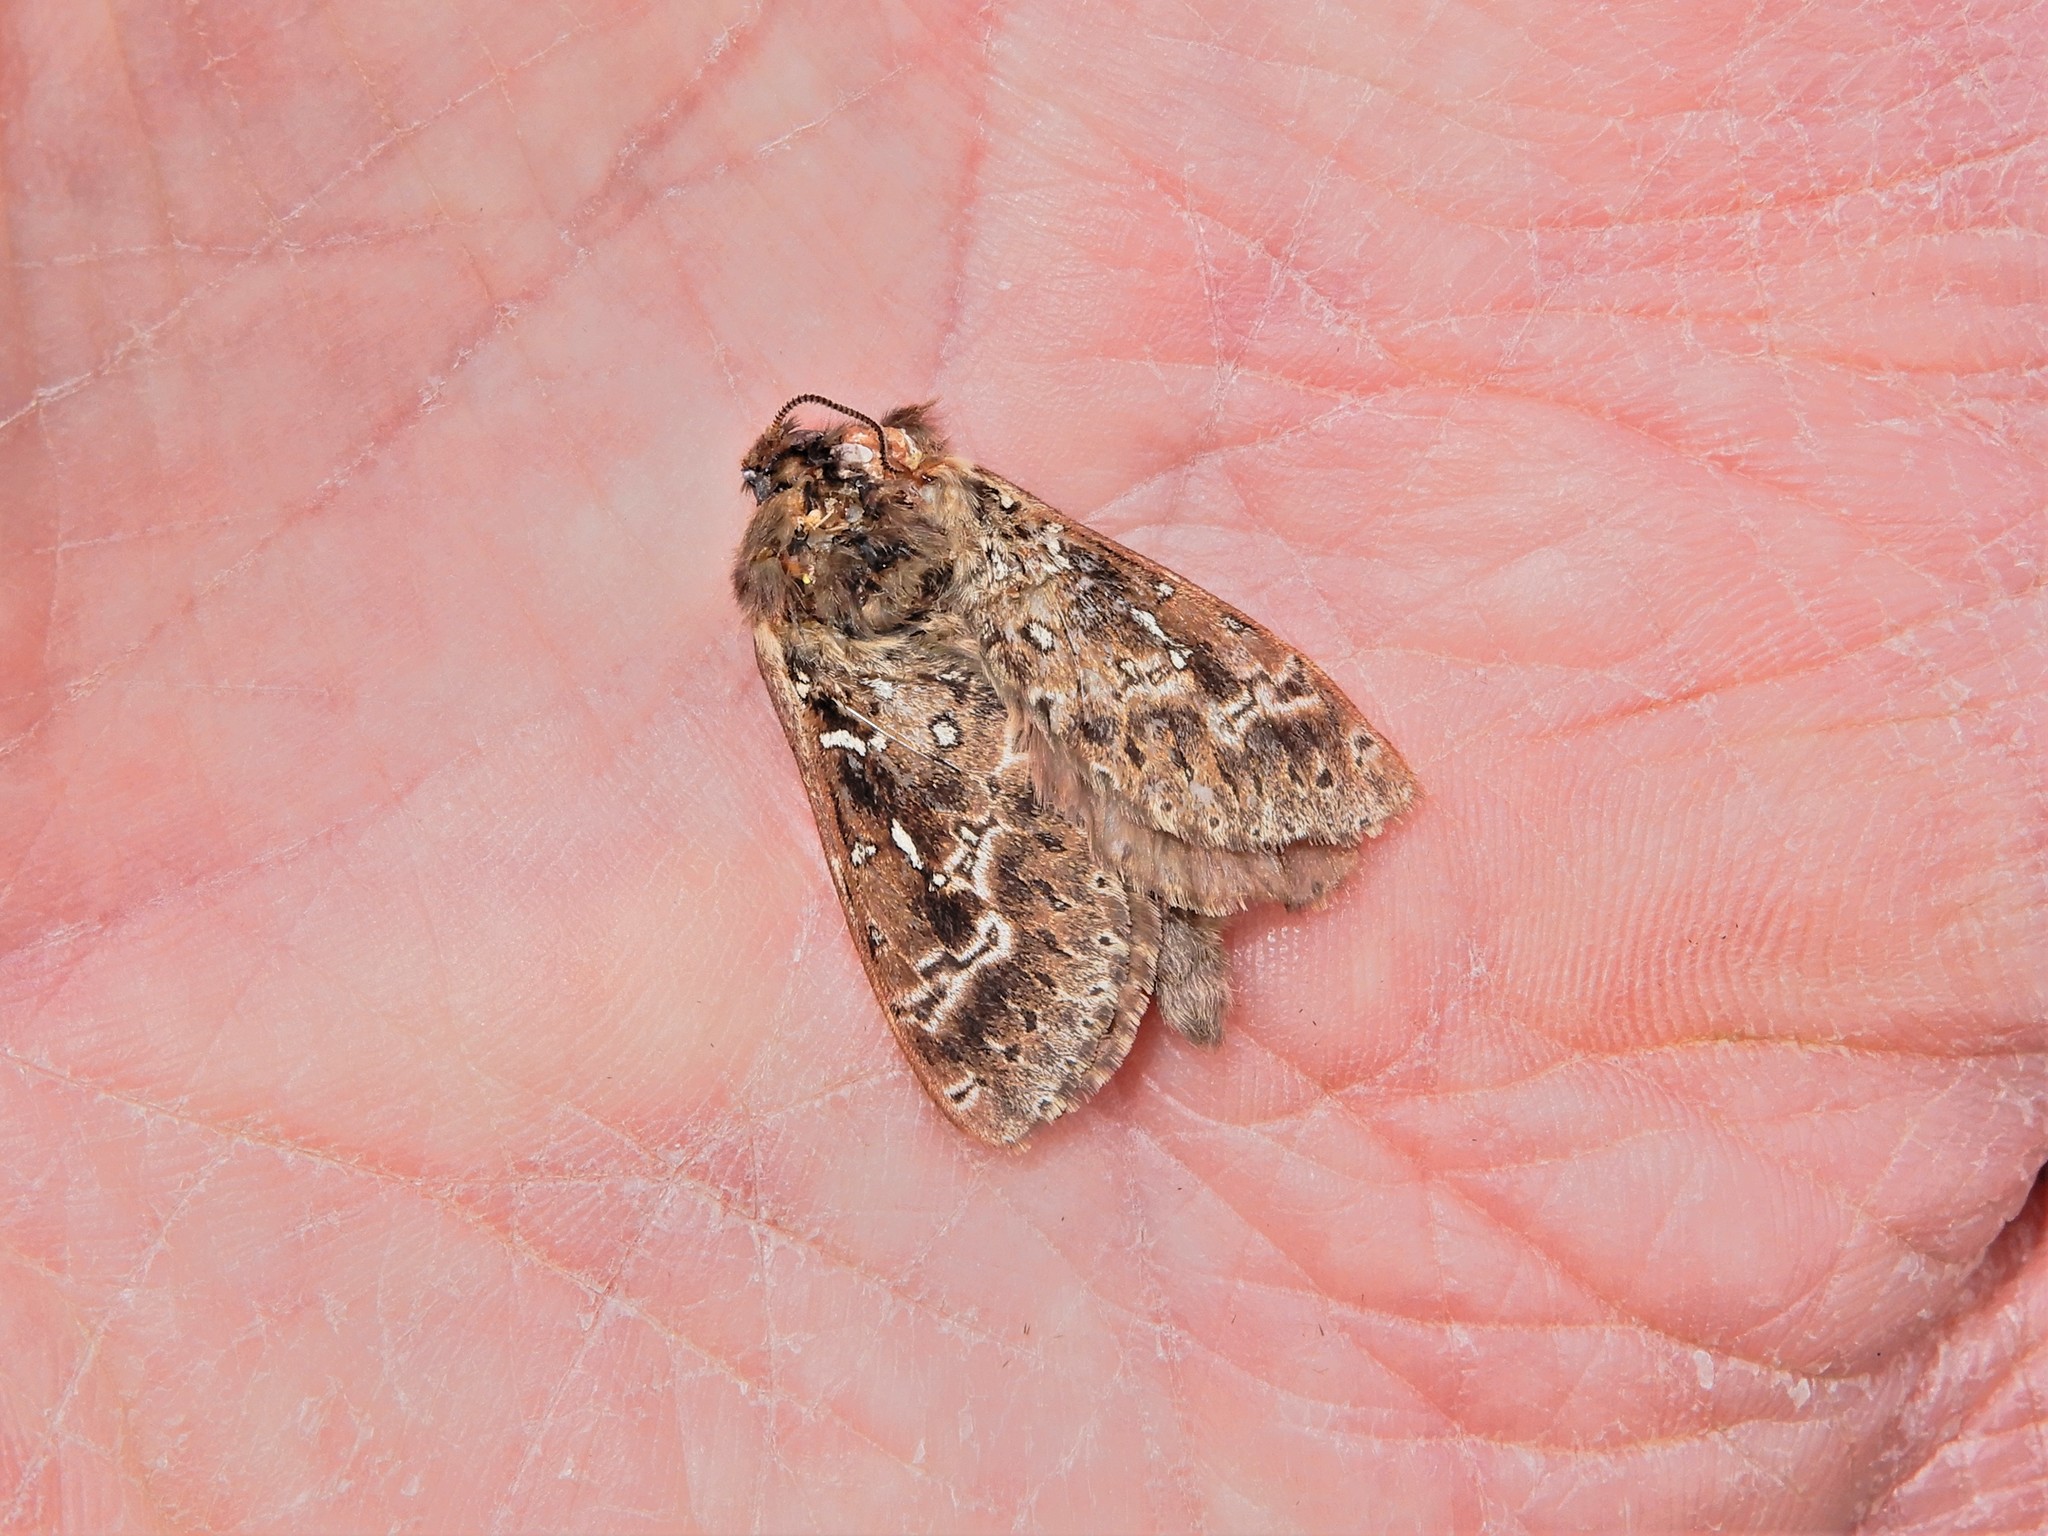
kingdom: Animalia
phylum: Arthropoda
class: Insecta
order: Lepidoptera
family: Hepialidae
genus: Wiseana
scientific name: Wiseana cervinata
